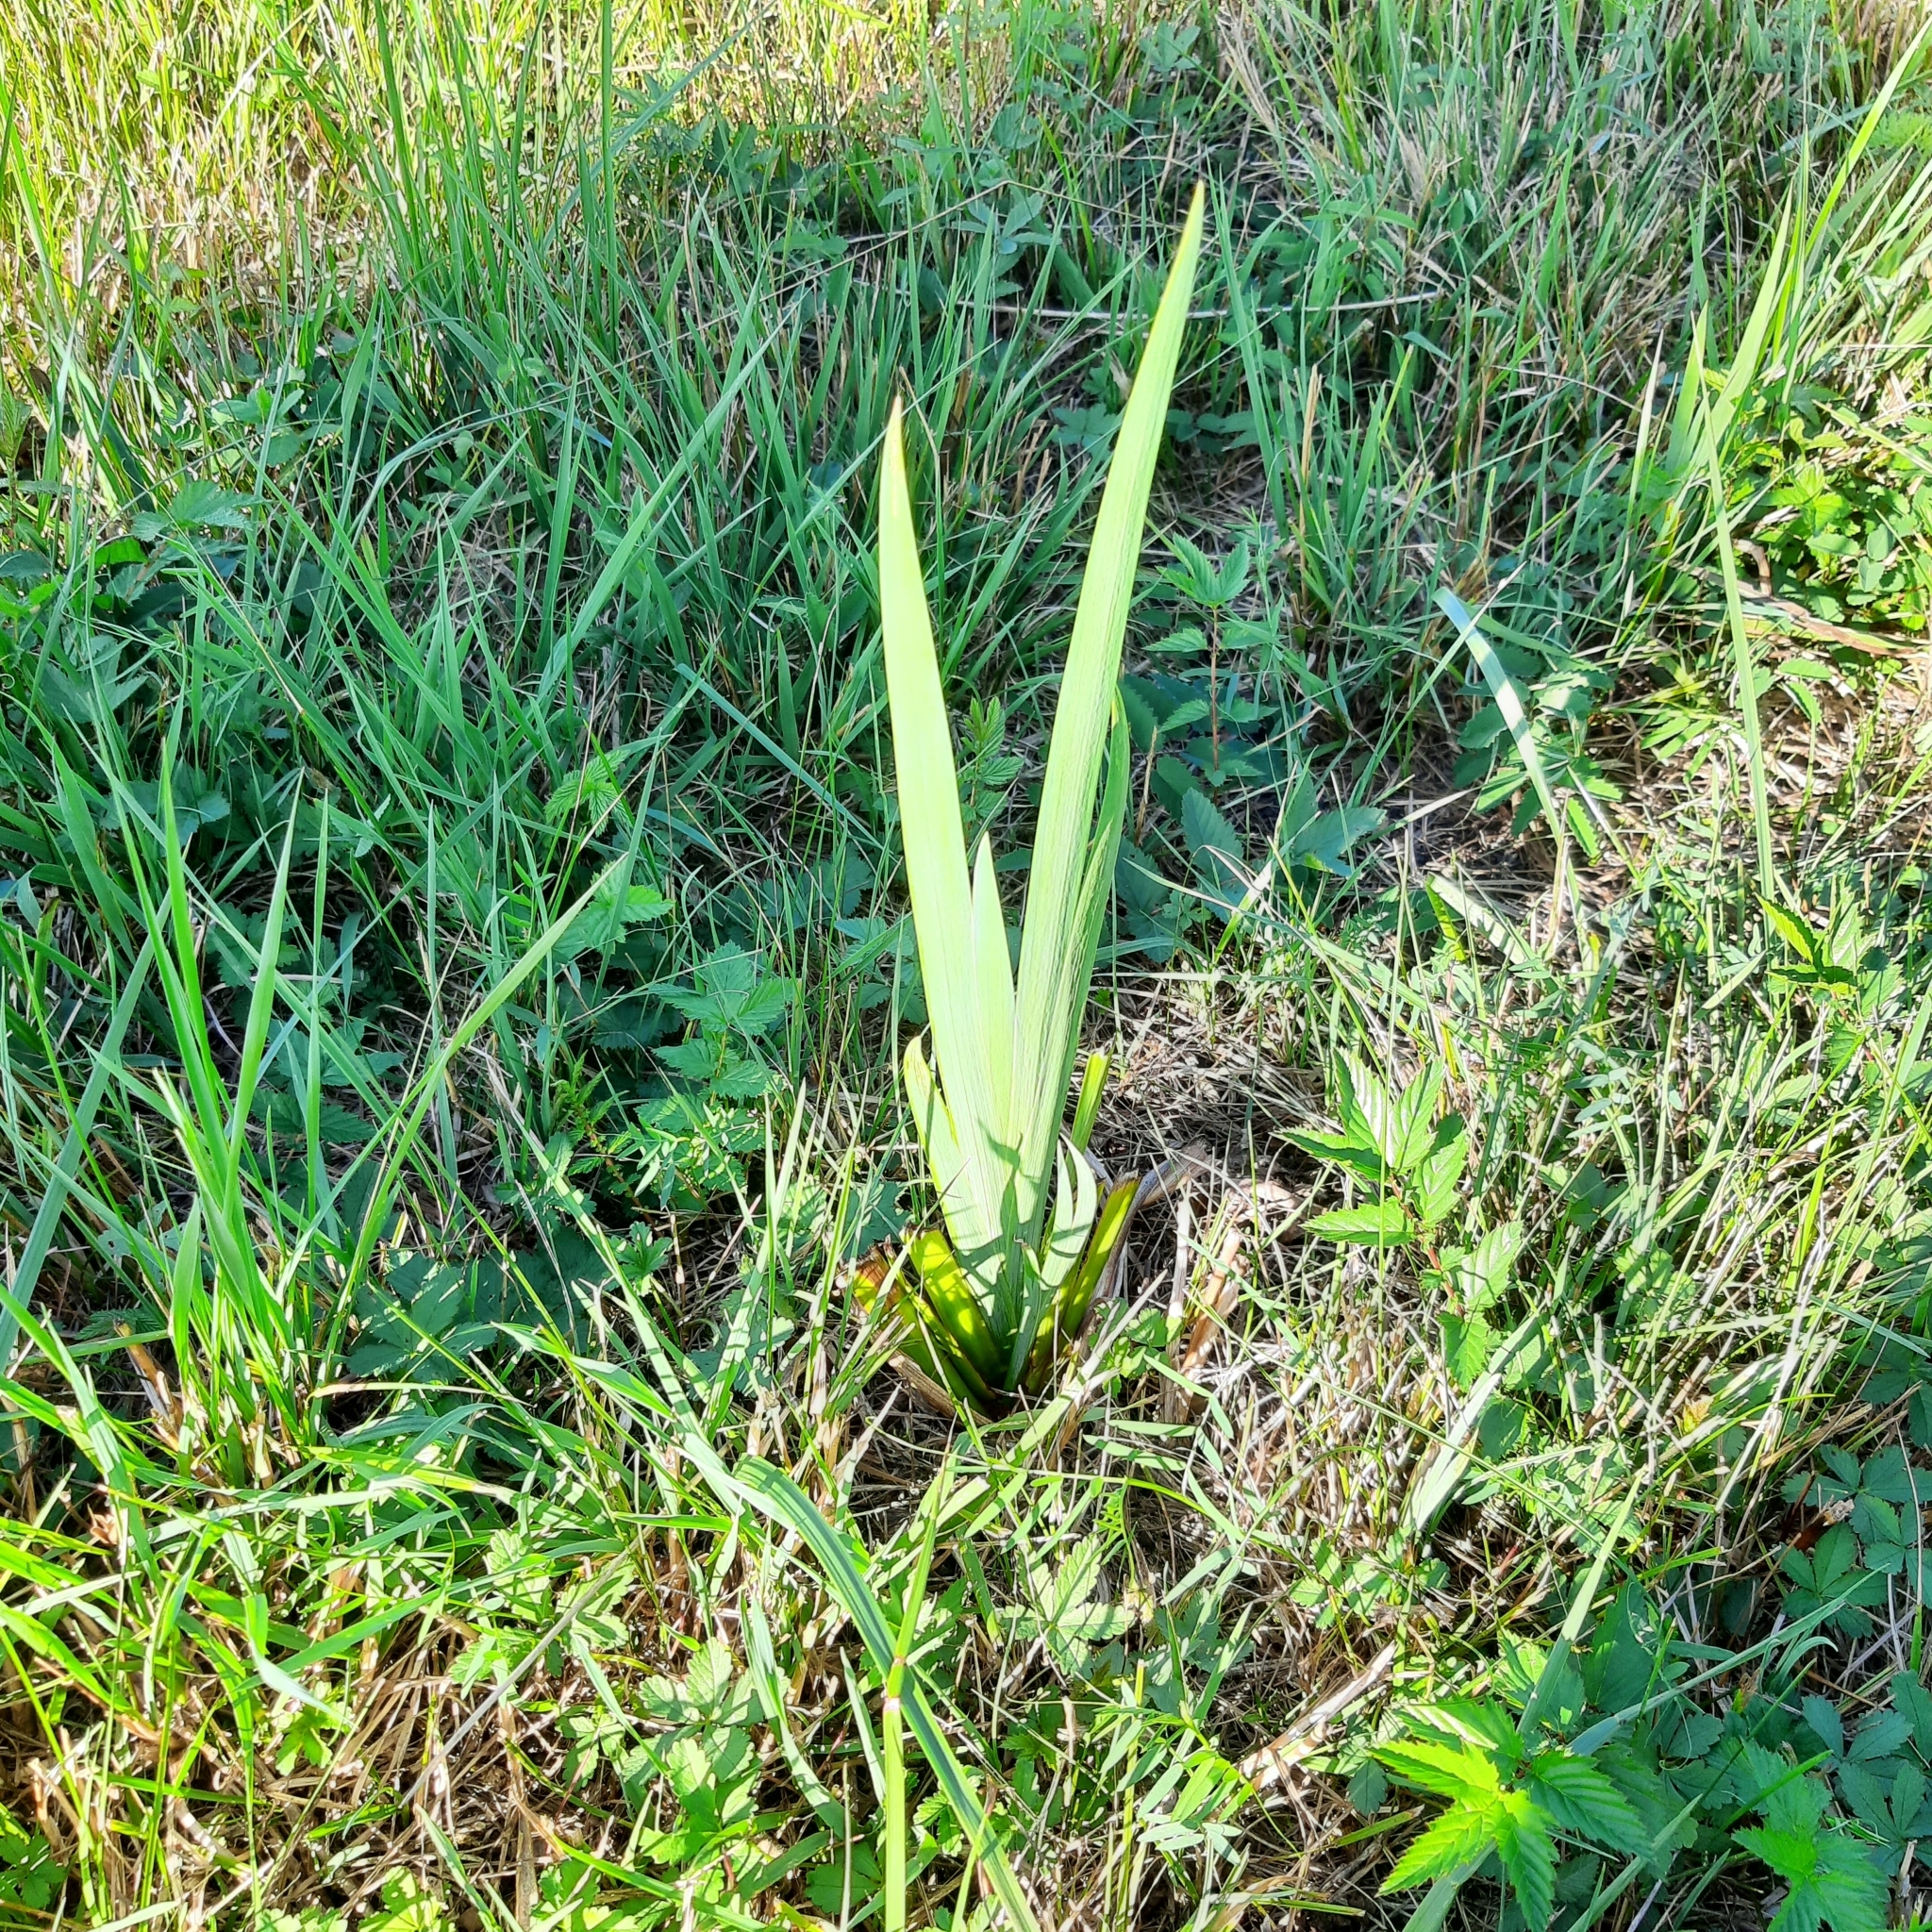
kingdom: Plantae
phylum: Tracheophyta
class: Liliopsida
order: Asparagales
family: Iridaceae
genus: Iris
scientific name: Iris pseudacorus
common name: Yellow flag
